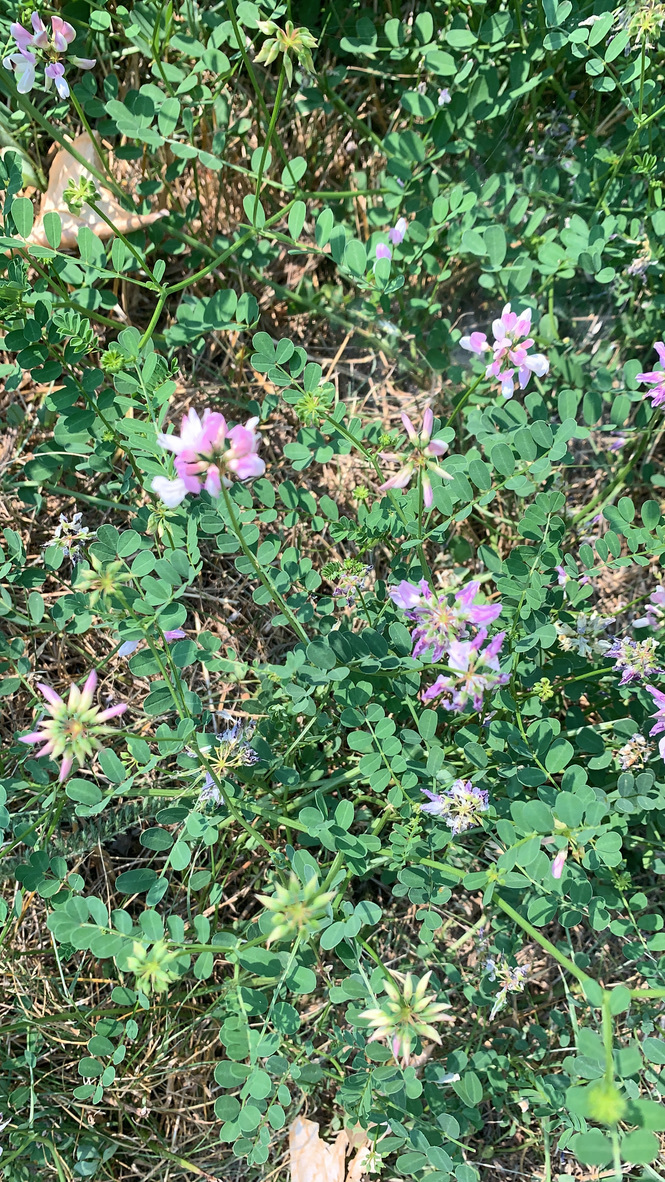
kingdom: Plantae
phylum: Tracheophyta
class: Magnoliopsida
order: Fabales
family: Fabaceae
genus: Coronilla
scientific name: Coronilla varia
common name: Crownvetch
